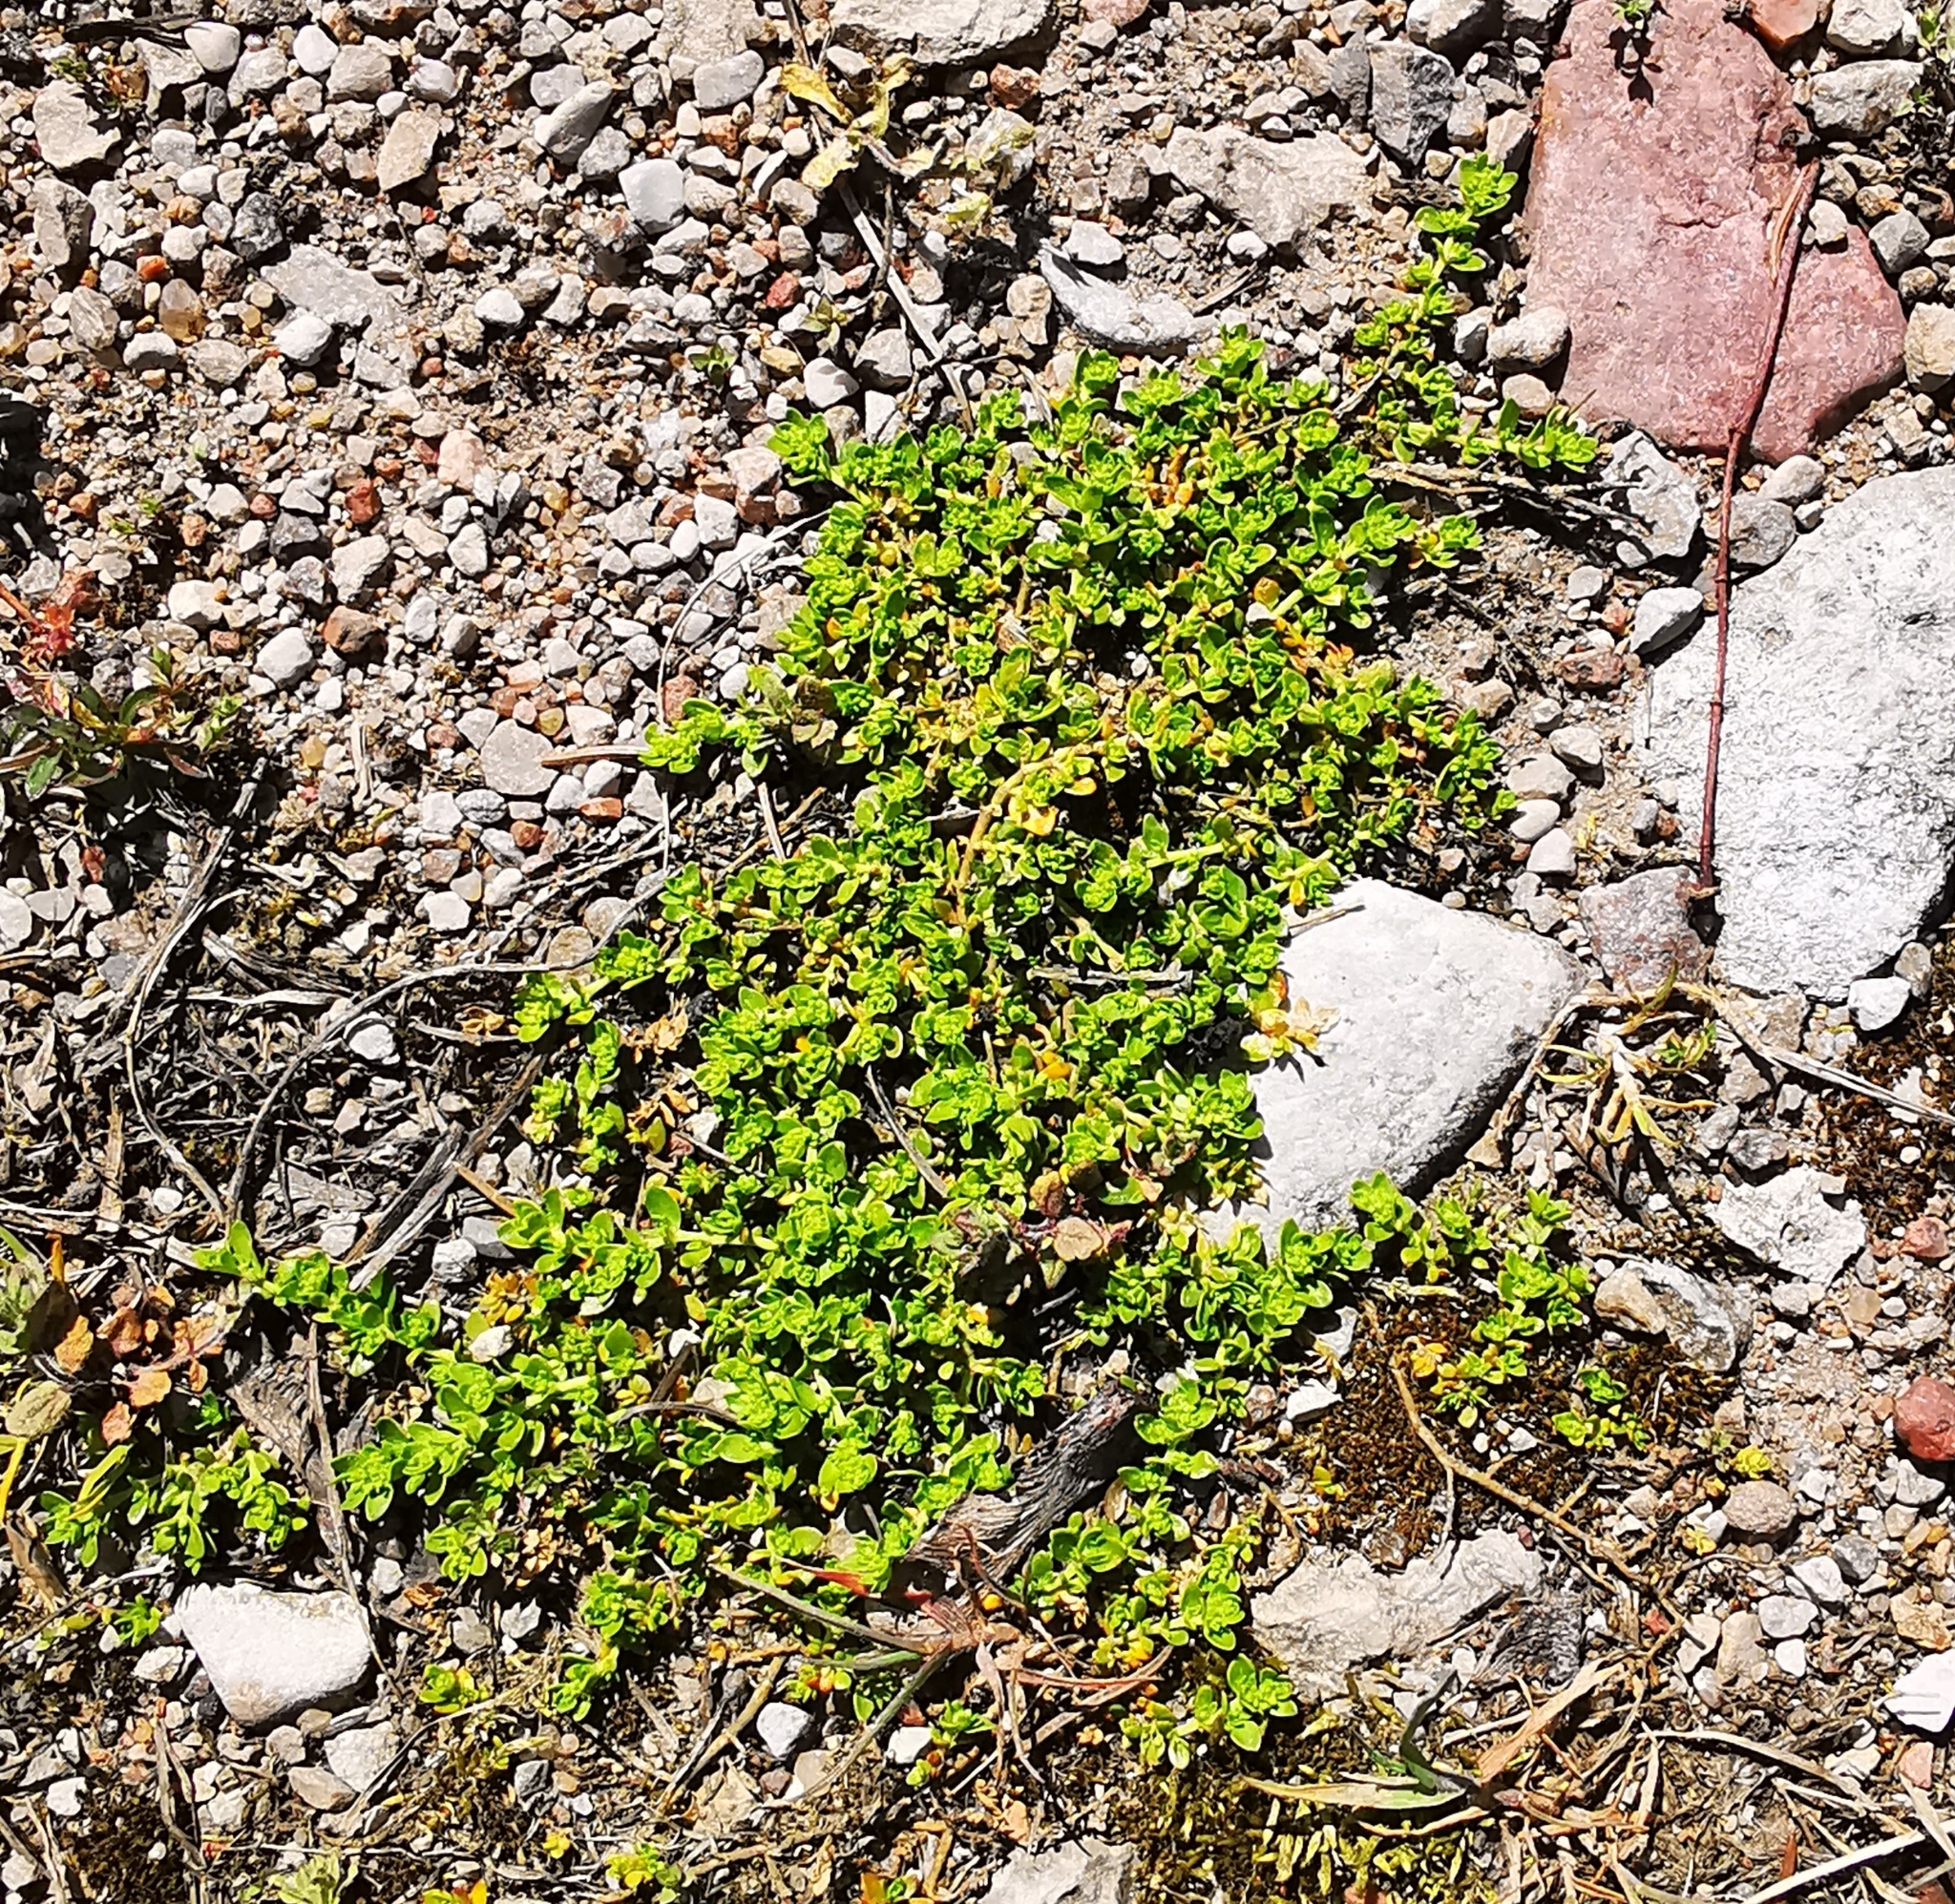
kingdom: Plantae
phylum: Tracheophyta
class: Magnoliopsida
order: Caryophyllales
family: Caryophyllaceae
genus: Herniaria
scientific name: Herniaria glabra
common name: Smooth rupturewort
